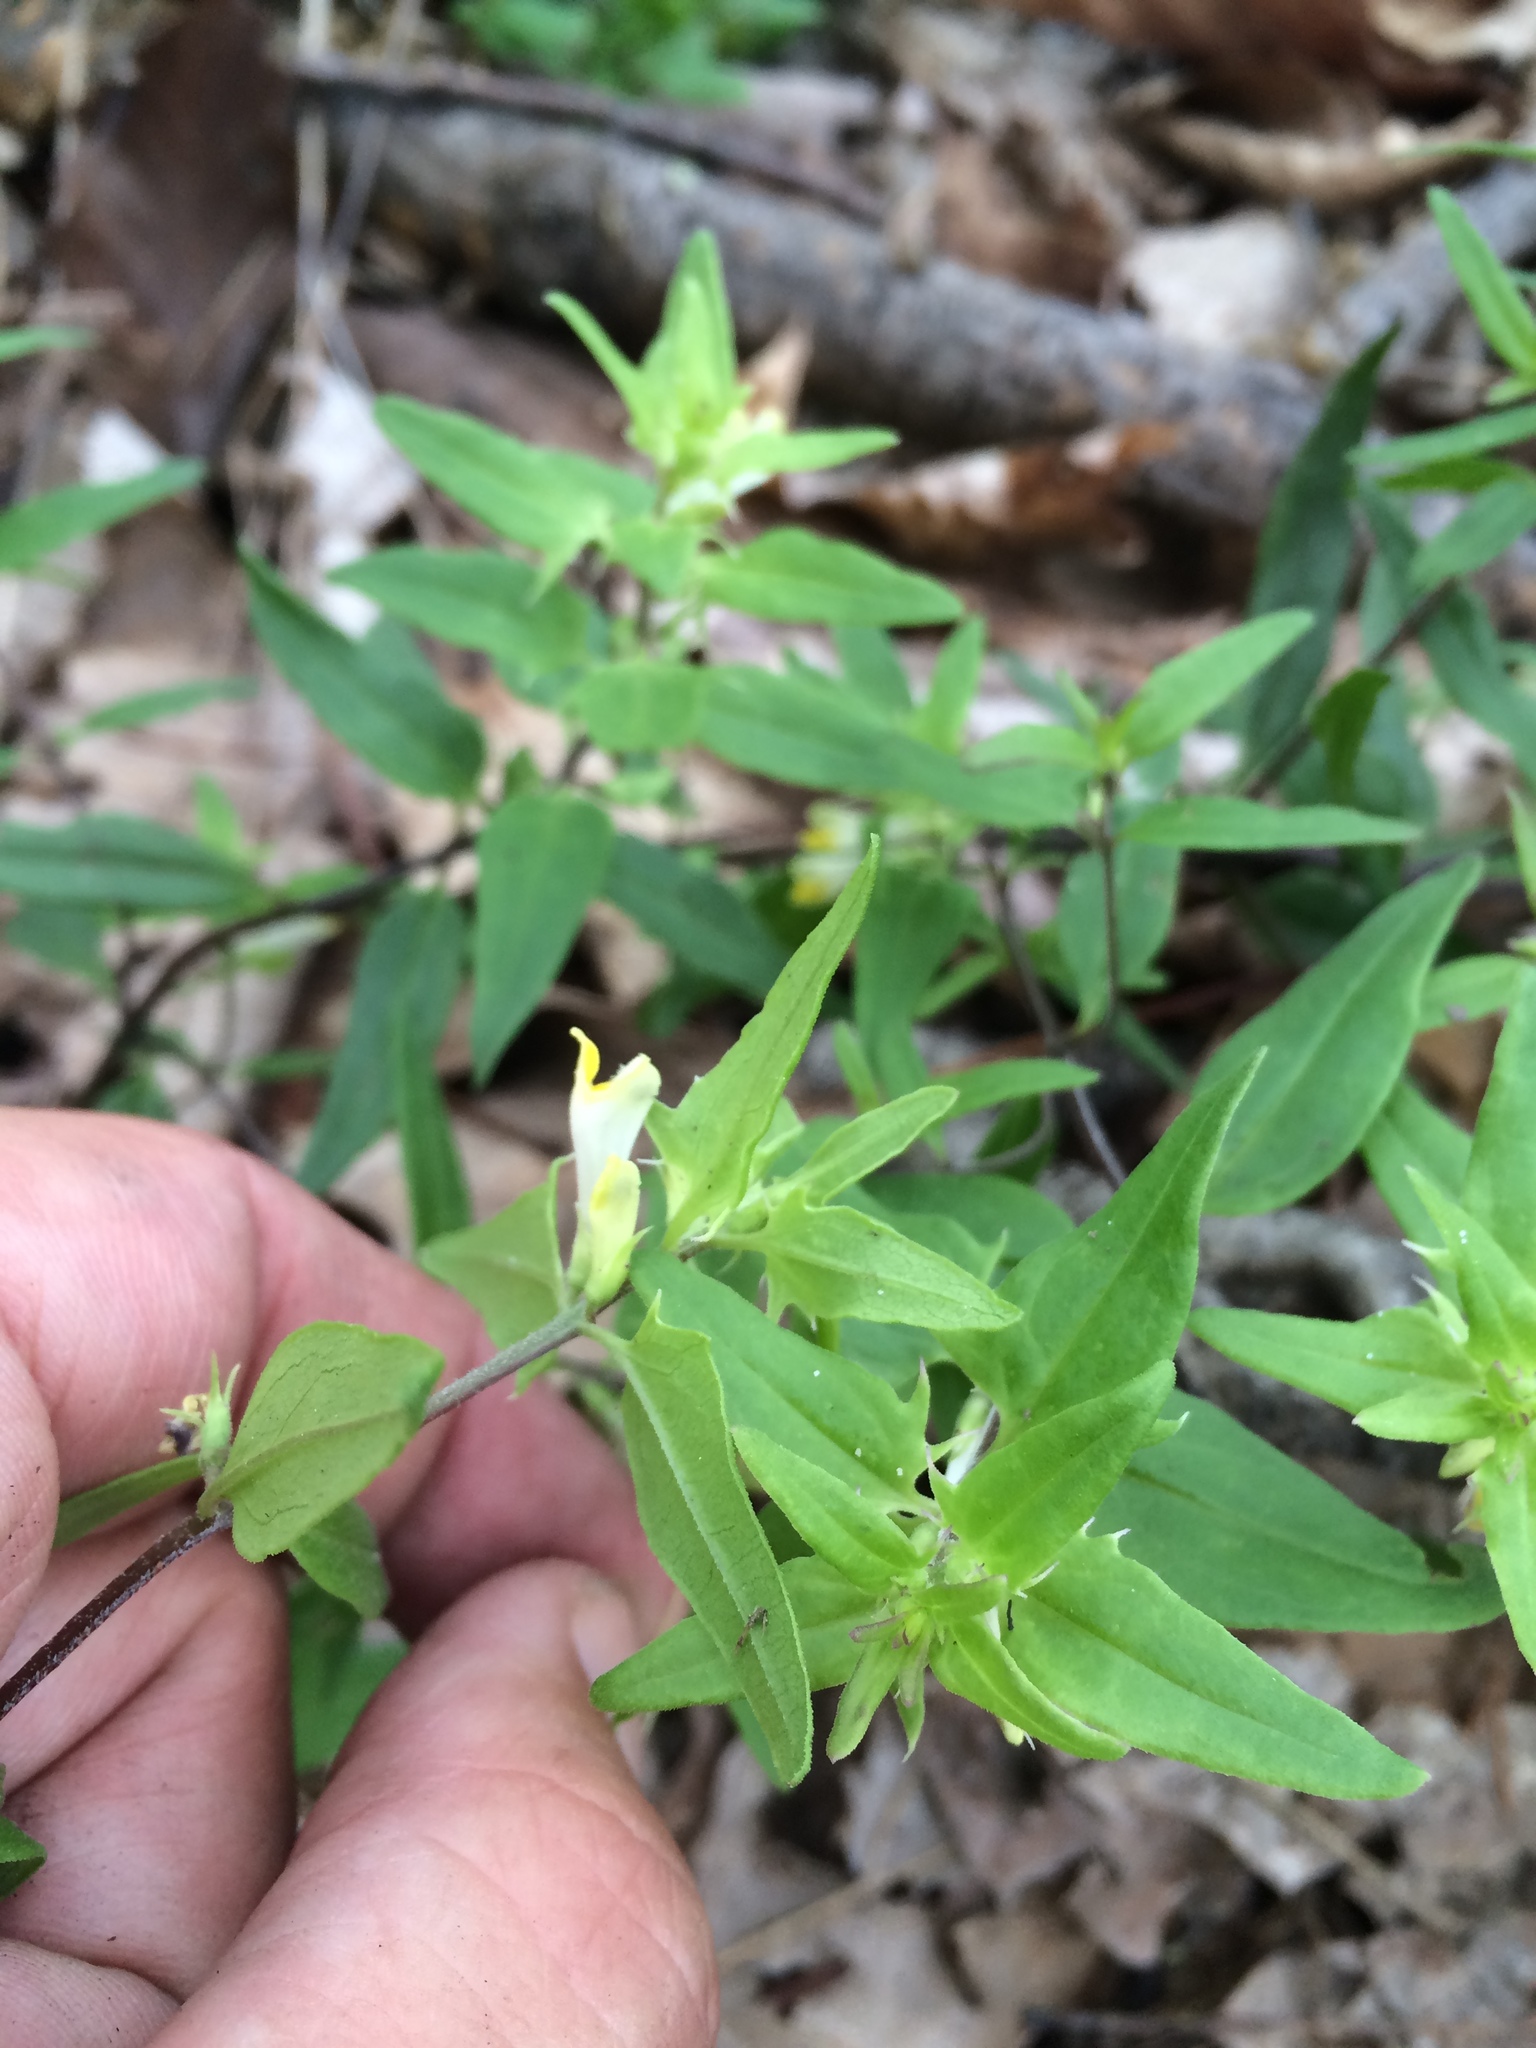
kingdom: Plantae
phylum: Tracheophyta
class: Magnoliopsida
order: Lamiales
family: Orobanchaceae
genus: Melampyrum
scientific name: Melampyrum lineare
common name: American cow-wheat
